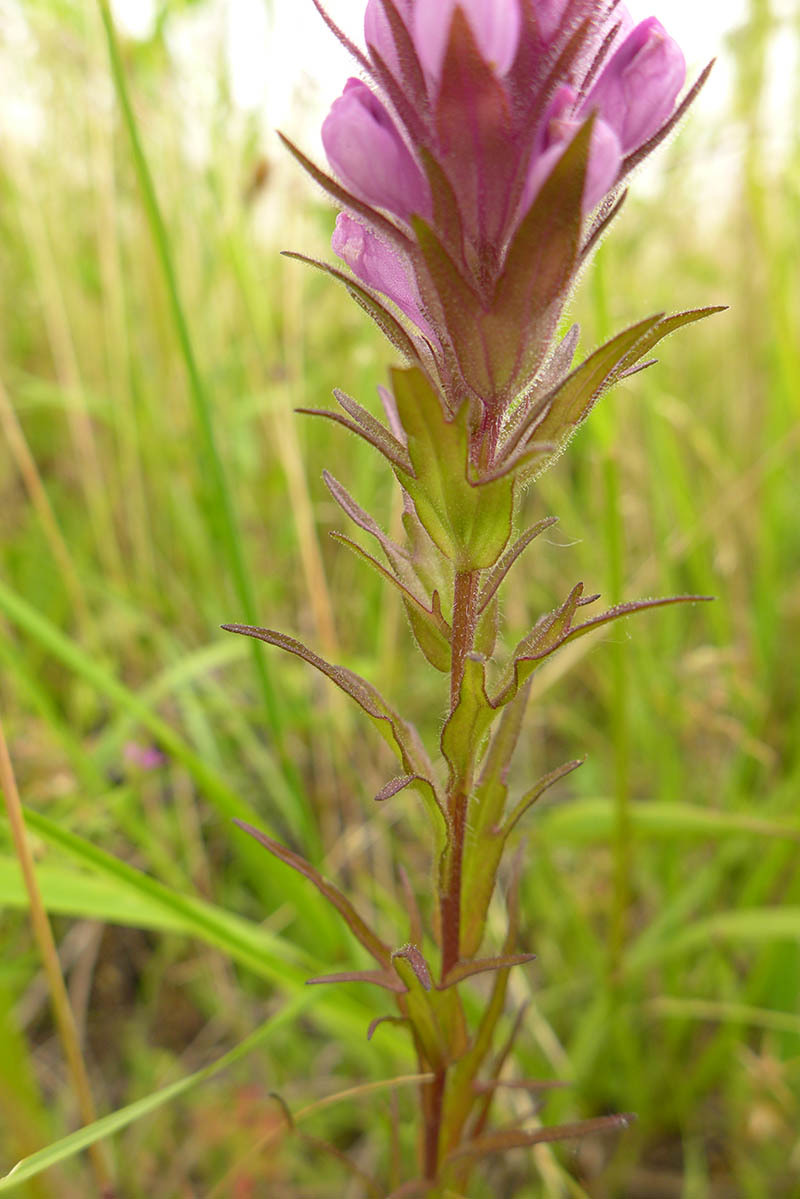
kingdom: Plantae
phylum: Tracheophyta
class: Magnoliopsida
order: Lamiales
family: Orobanchaceae
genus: Orthocarpus
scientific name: Orthocarpus bracteosus
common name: Rosy owl's-clover
